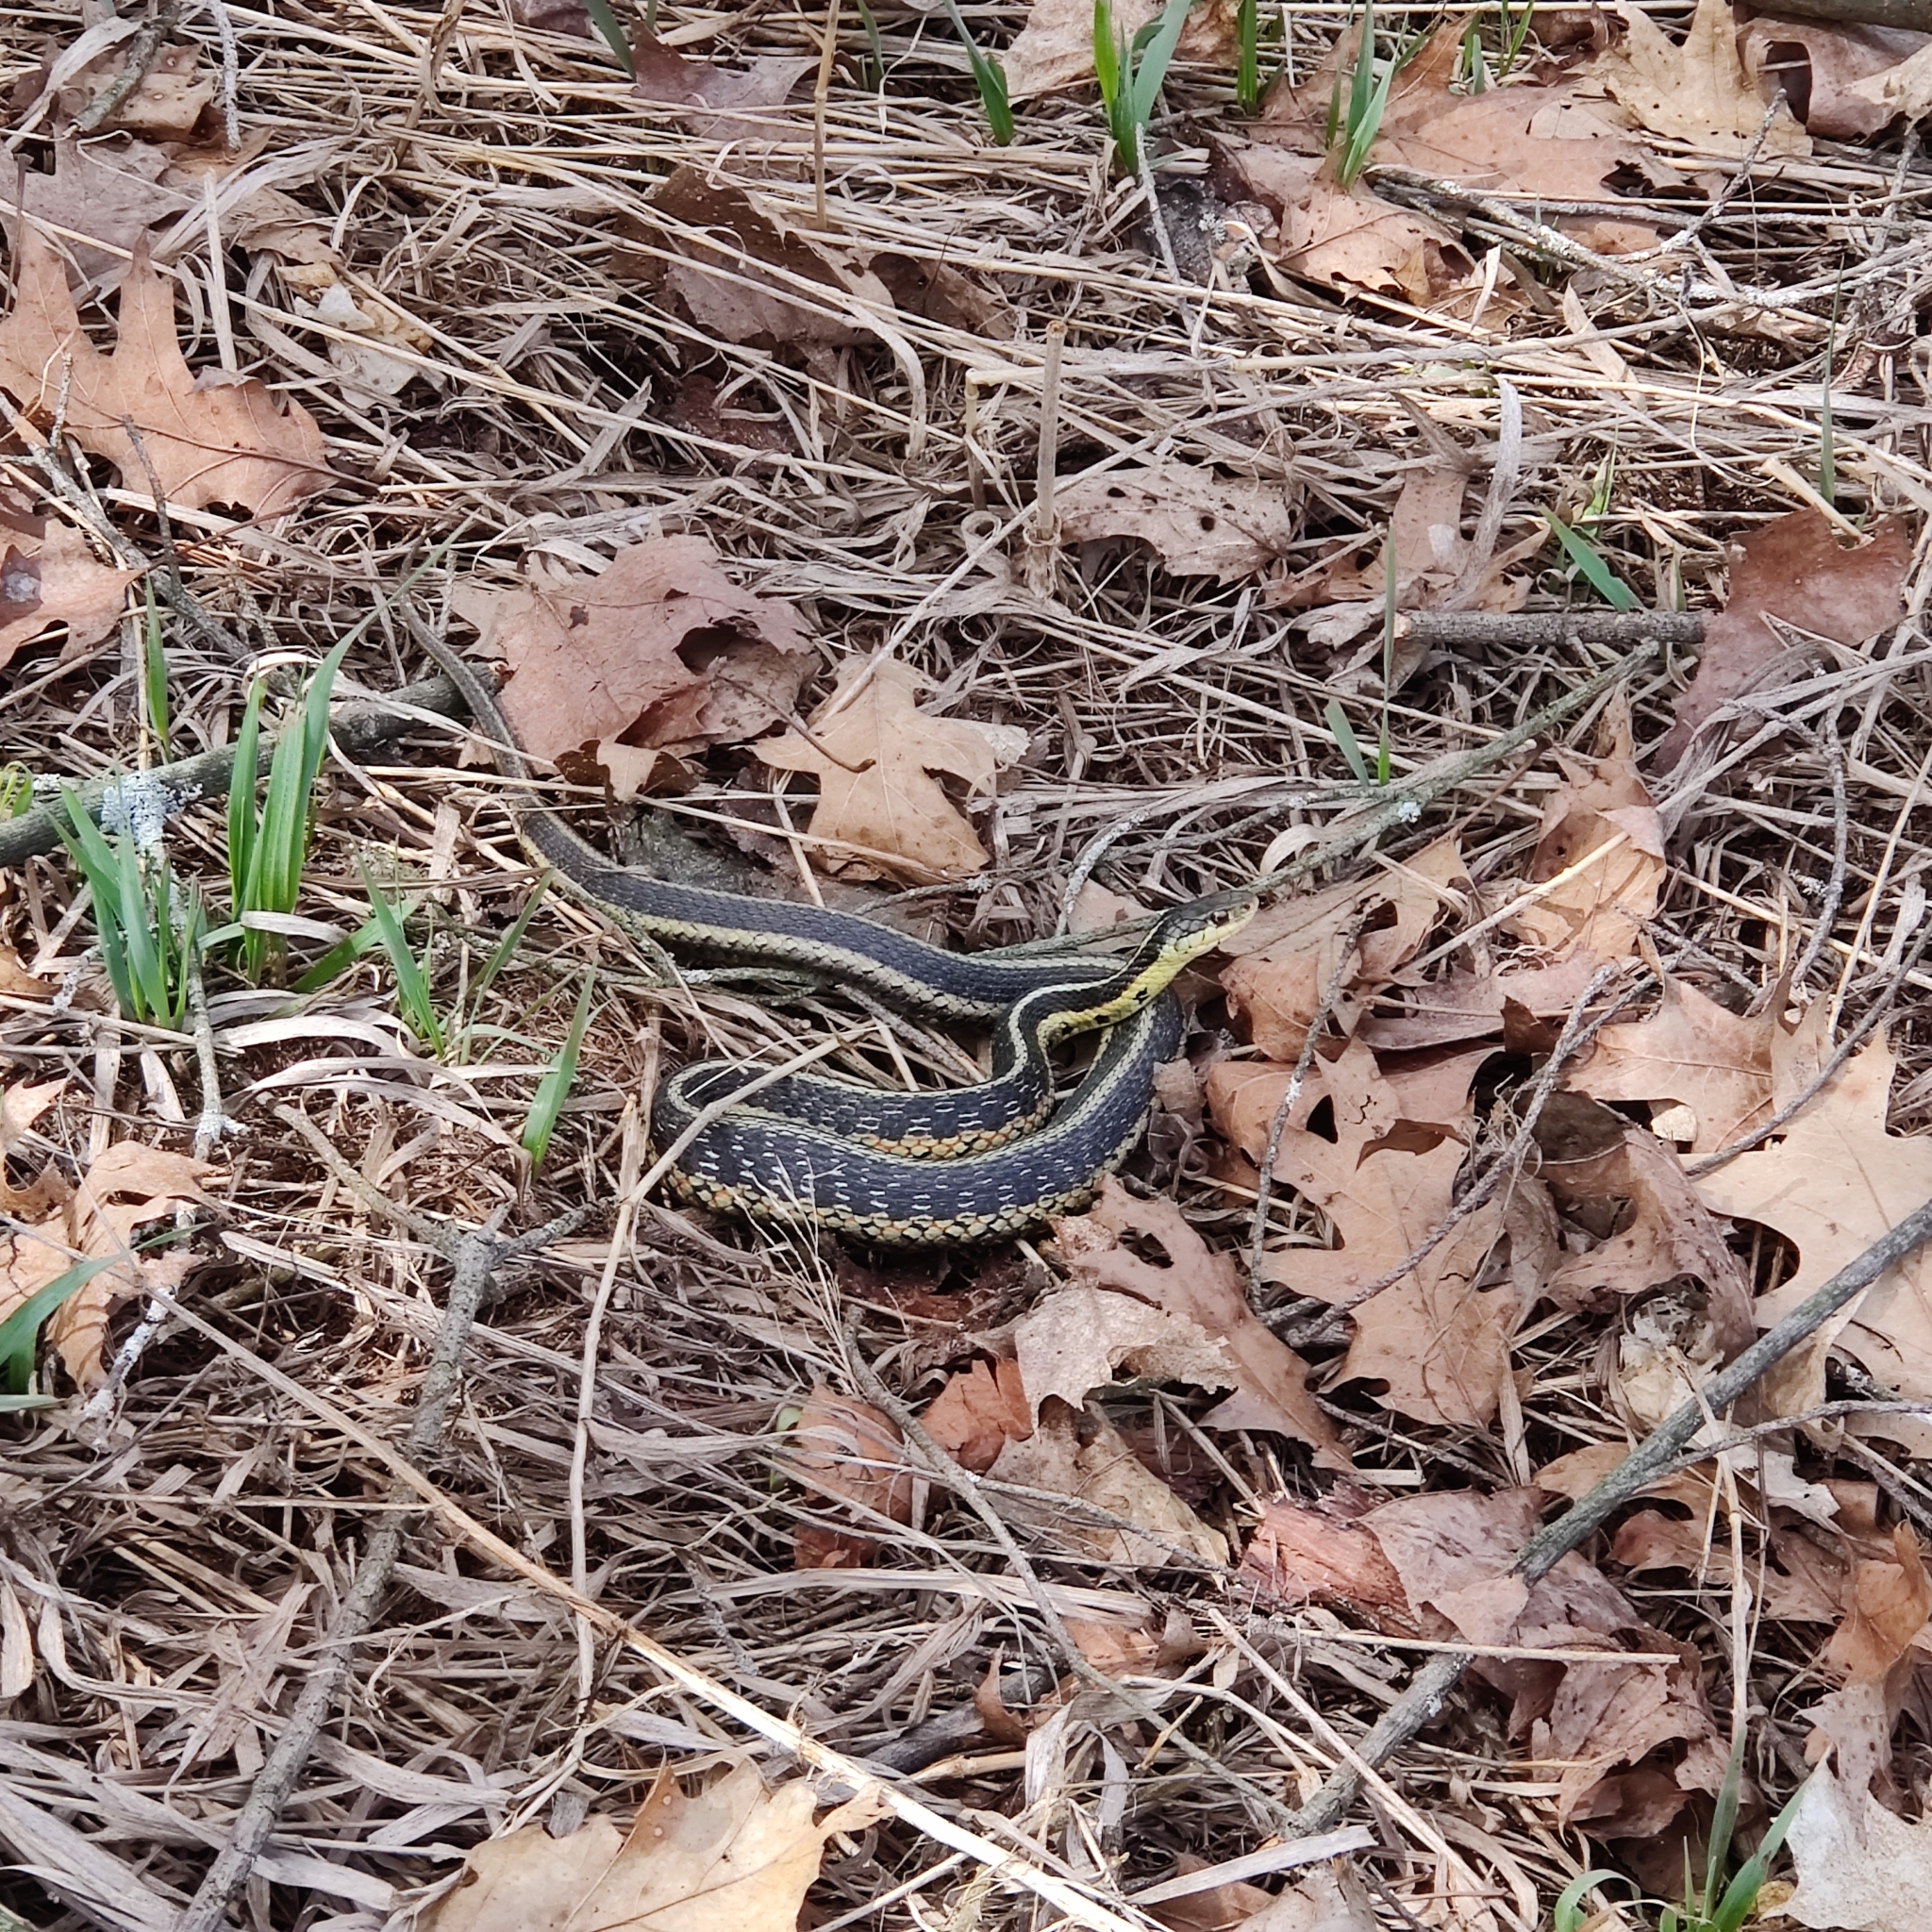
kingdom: Animalia
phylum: Chordata
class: Squamata
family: Colubridae
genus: Thamnophis
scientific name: Thamnophis sirtalis
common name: Common garter snake
